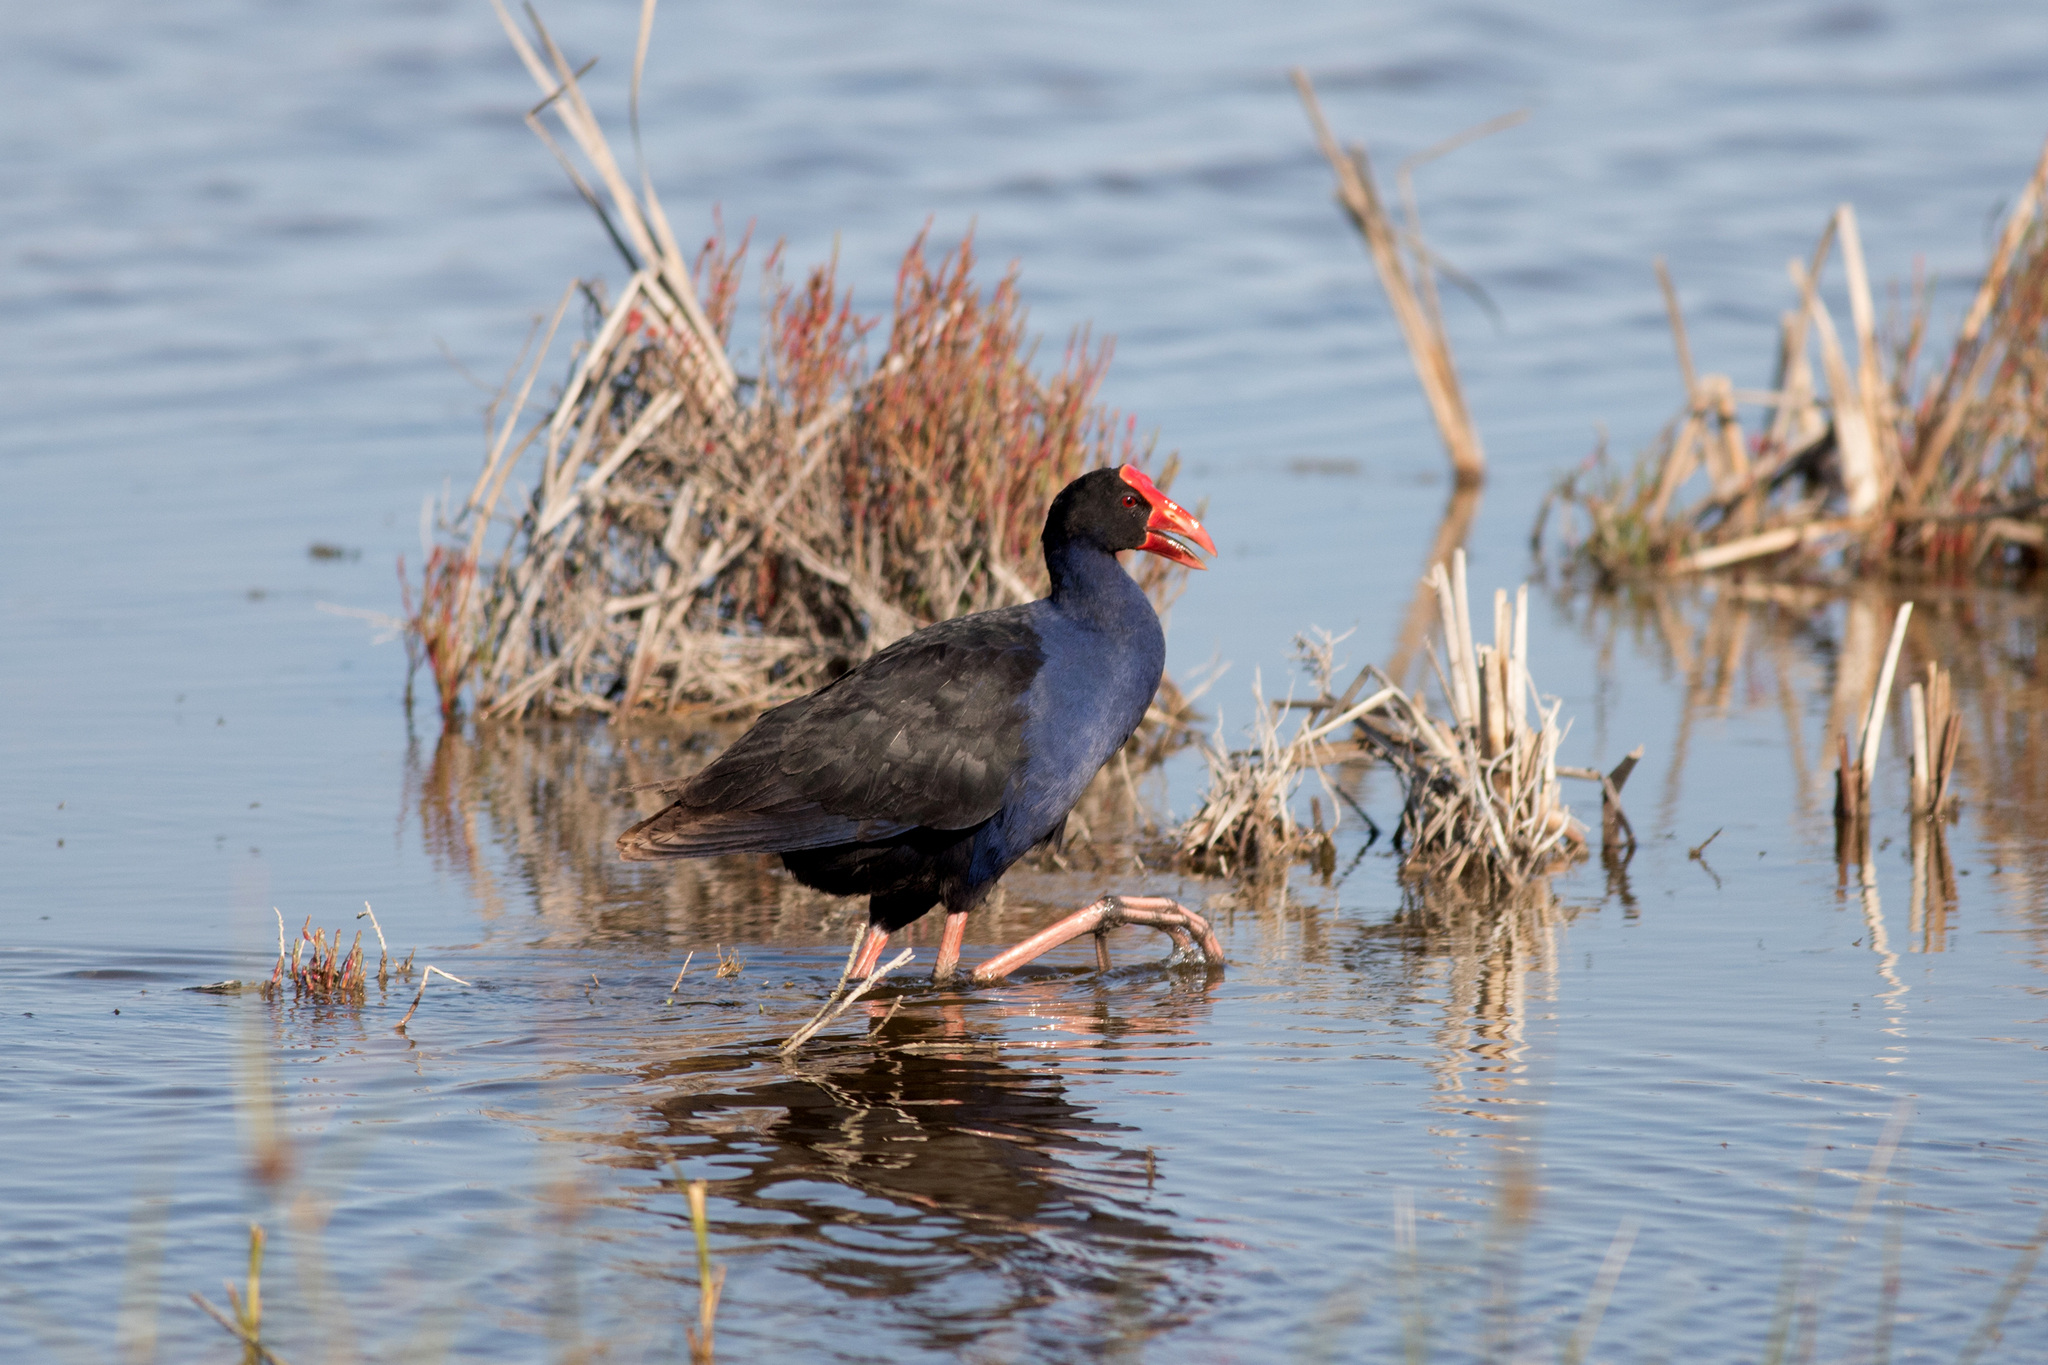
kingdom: Animalia
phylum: Chordata
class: Aves
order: Gruiformes
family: Rallidae
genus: Porphyrio
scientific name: Porphyrio melanotus
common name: Australasian swamphen
